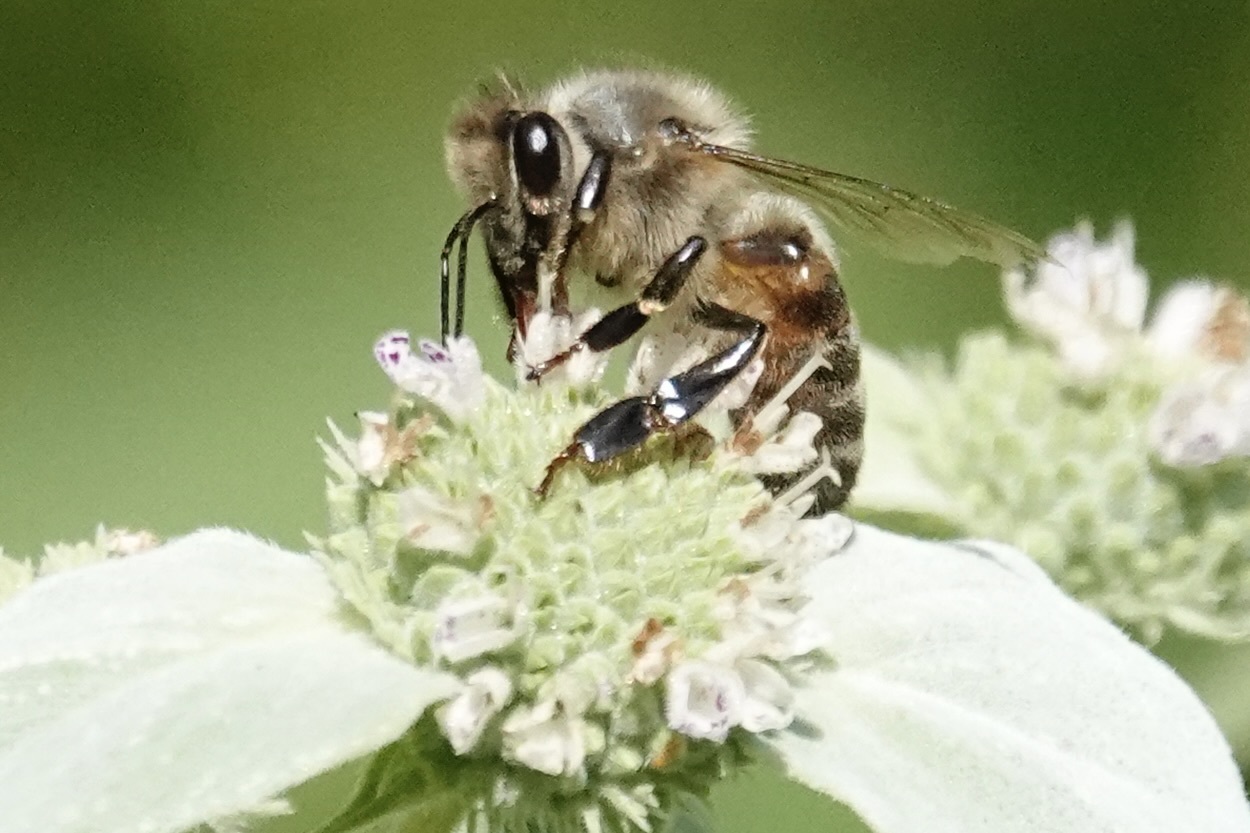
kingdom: Animalia
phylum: Arthropoda
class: Insecta
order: Hymenoptera
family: Apidae
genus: Apis
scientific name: Apis mellifera
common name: Honey bee
